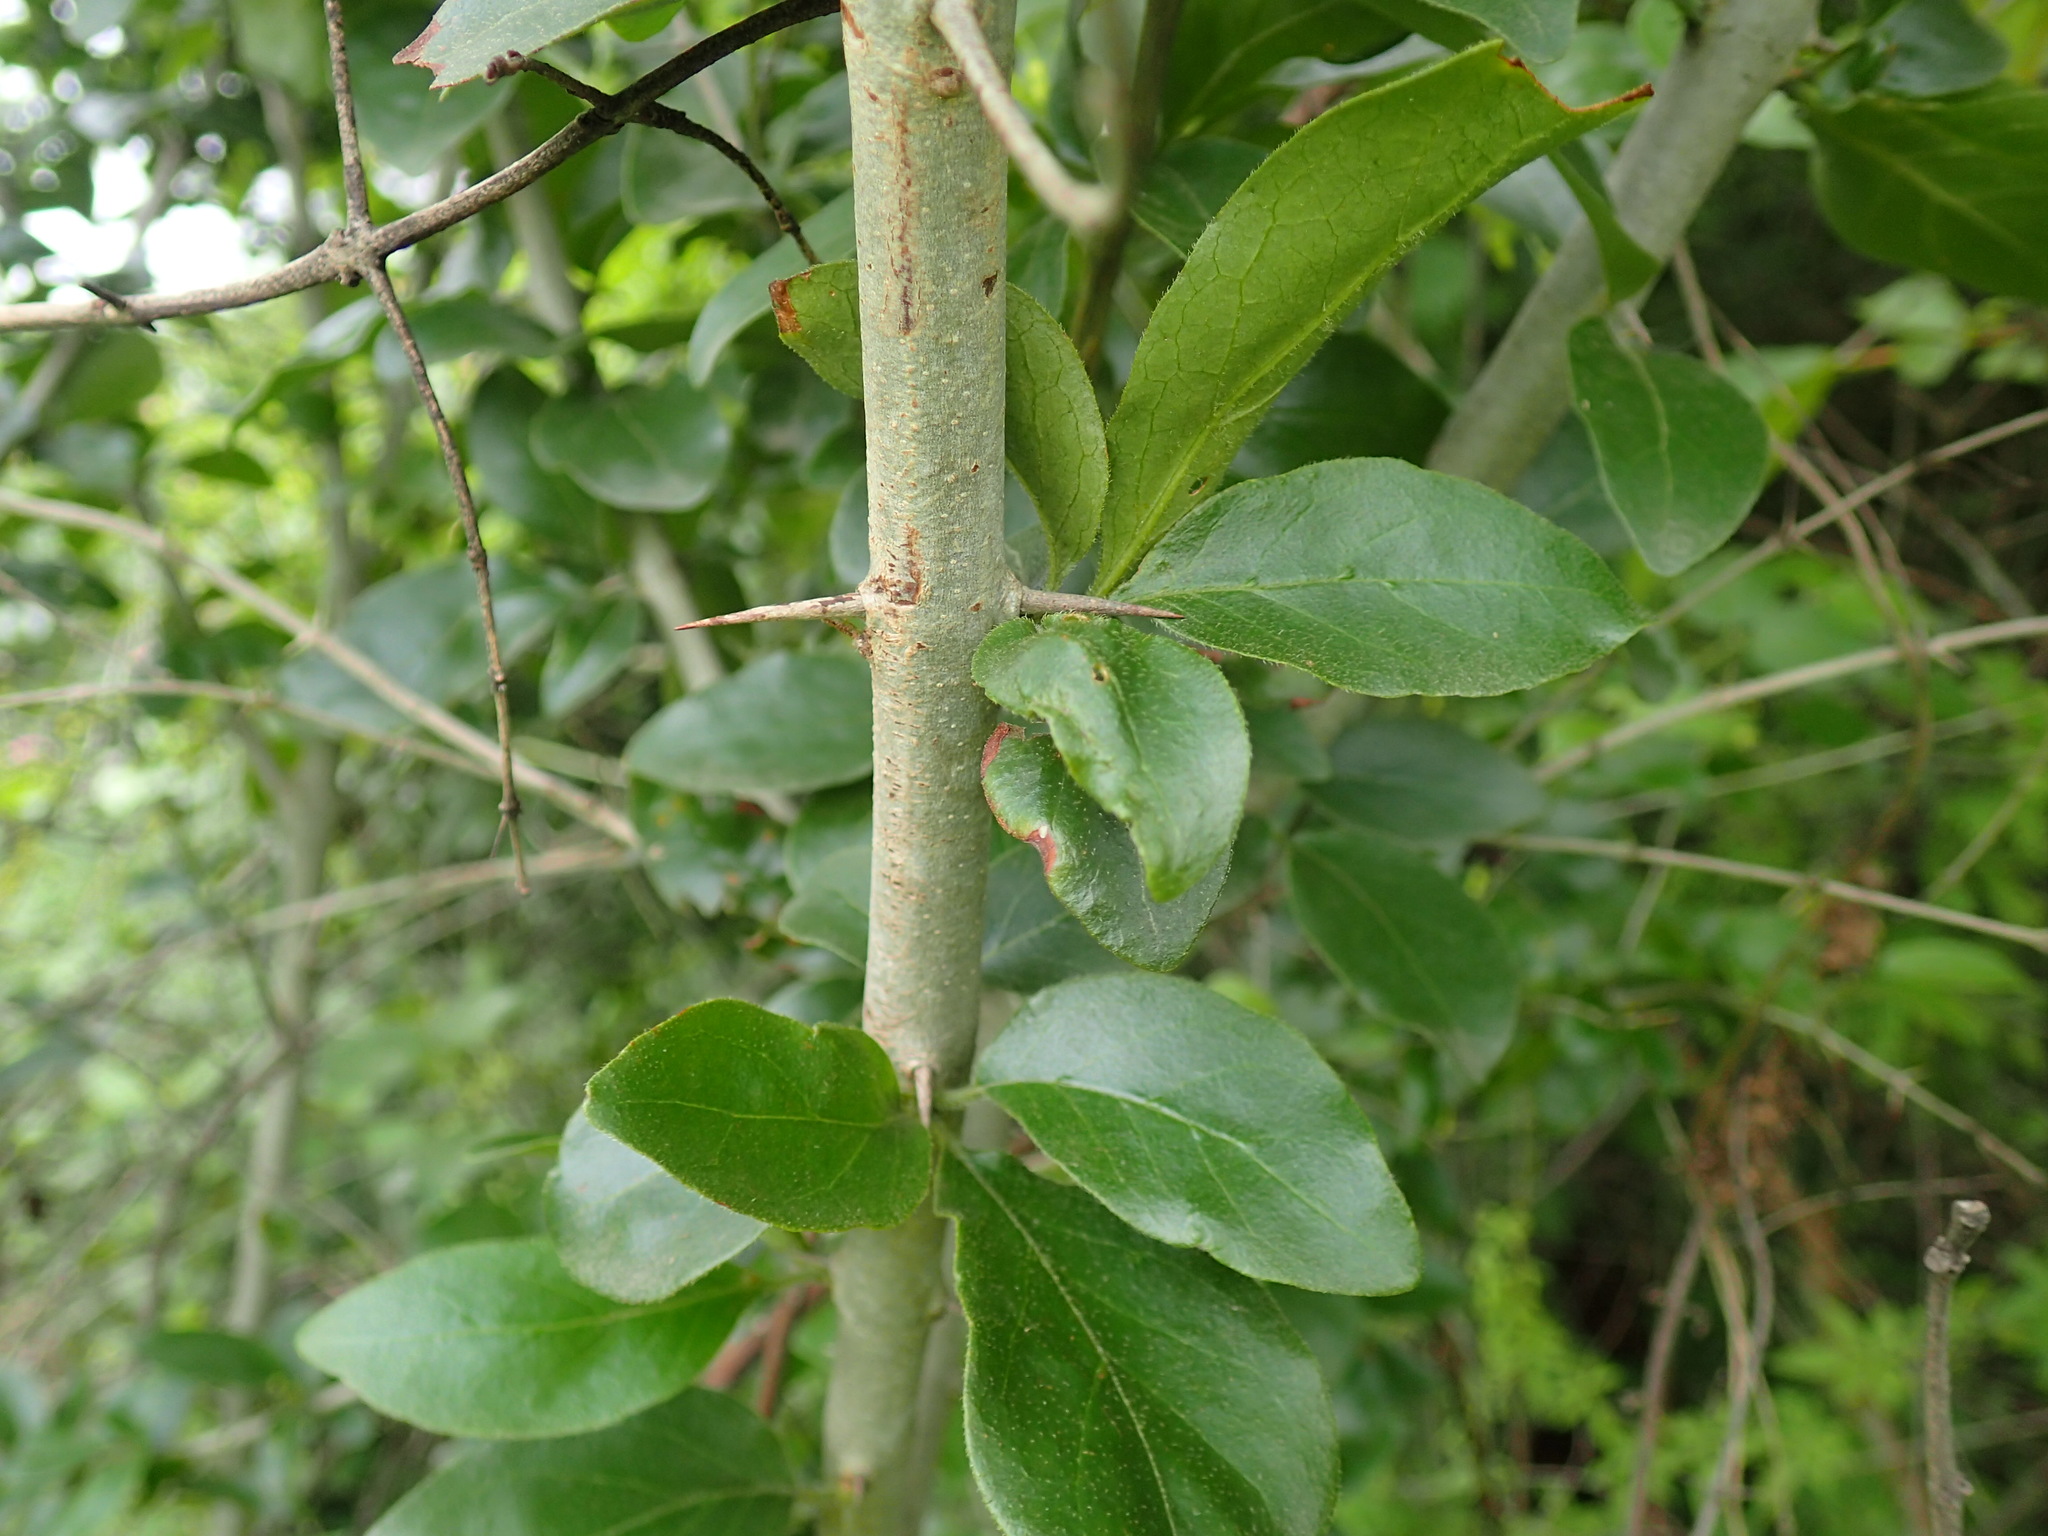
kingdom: Plantae
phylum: Tracheophyta
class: Magnoliopsida
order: Gentianales
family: Rubiaceae
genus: Canthium
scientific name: Canthium ciliatum
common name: Hairy turkey-berry
